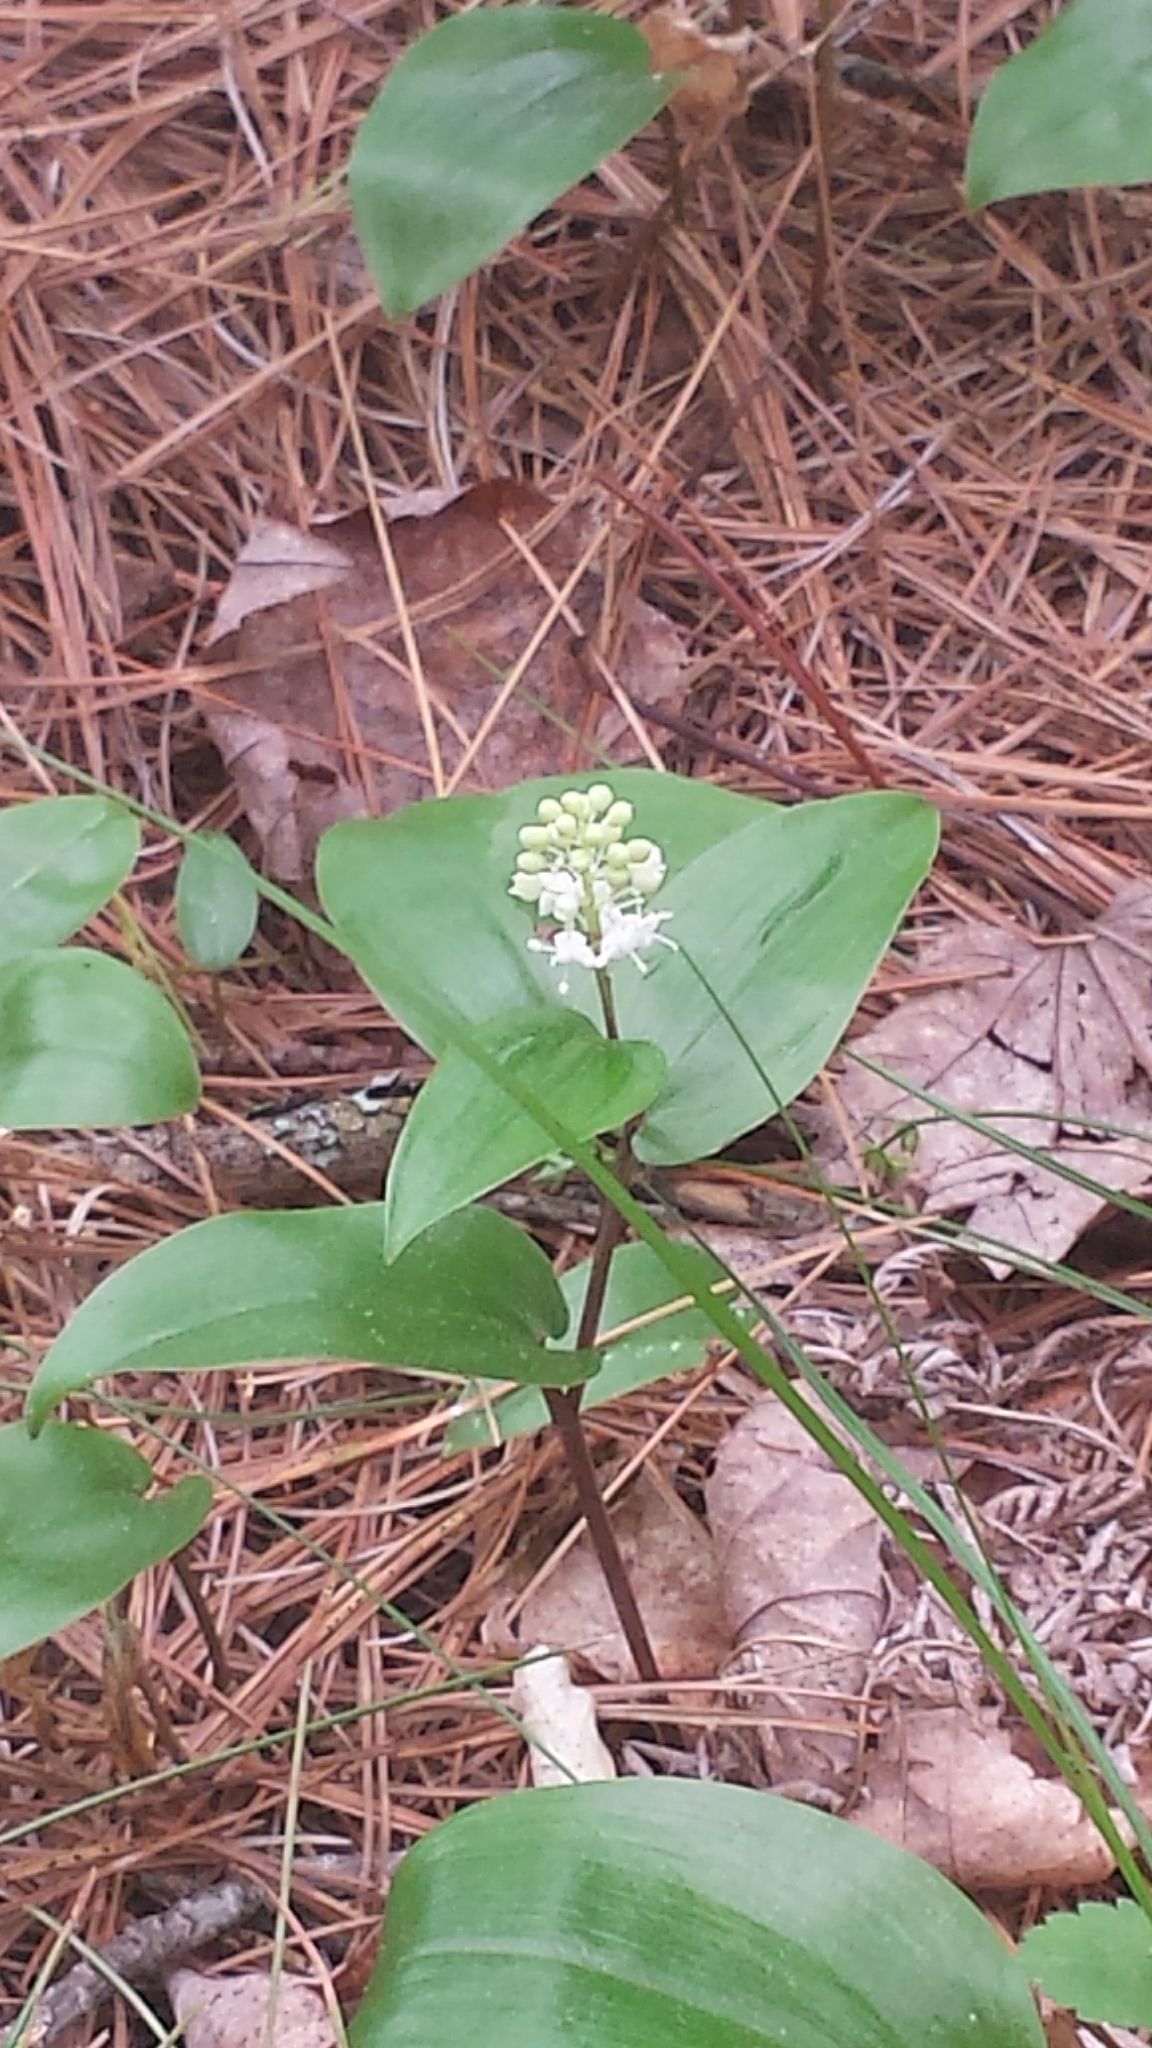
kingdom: Plantae
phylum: Tracheophyta
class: Liliopsida
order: Asparagales
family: Asparagaceae
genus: Maianthemum
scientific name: Maianthemum canadense
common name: False lily-of-the-valley
